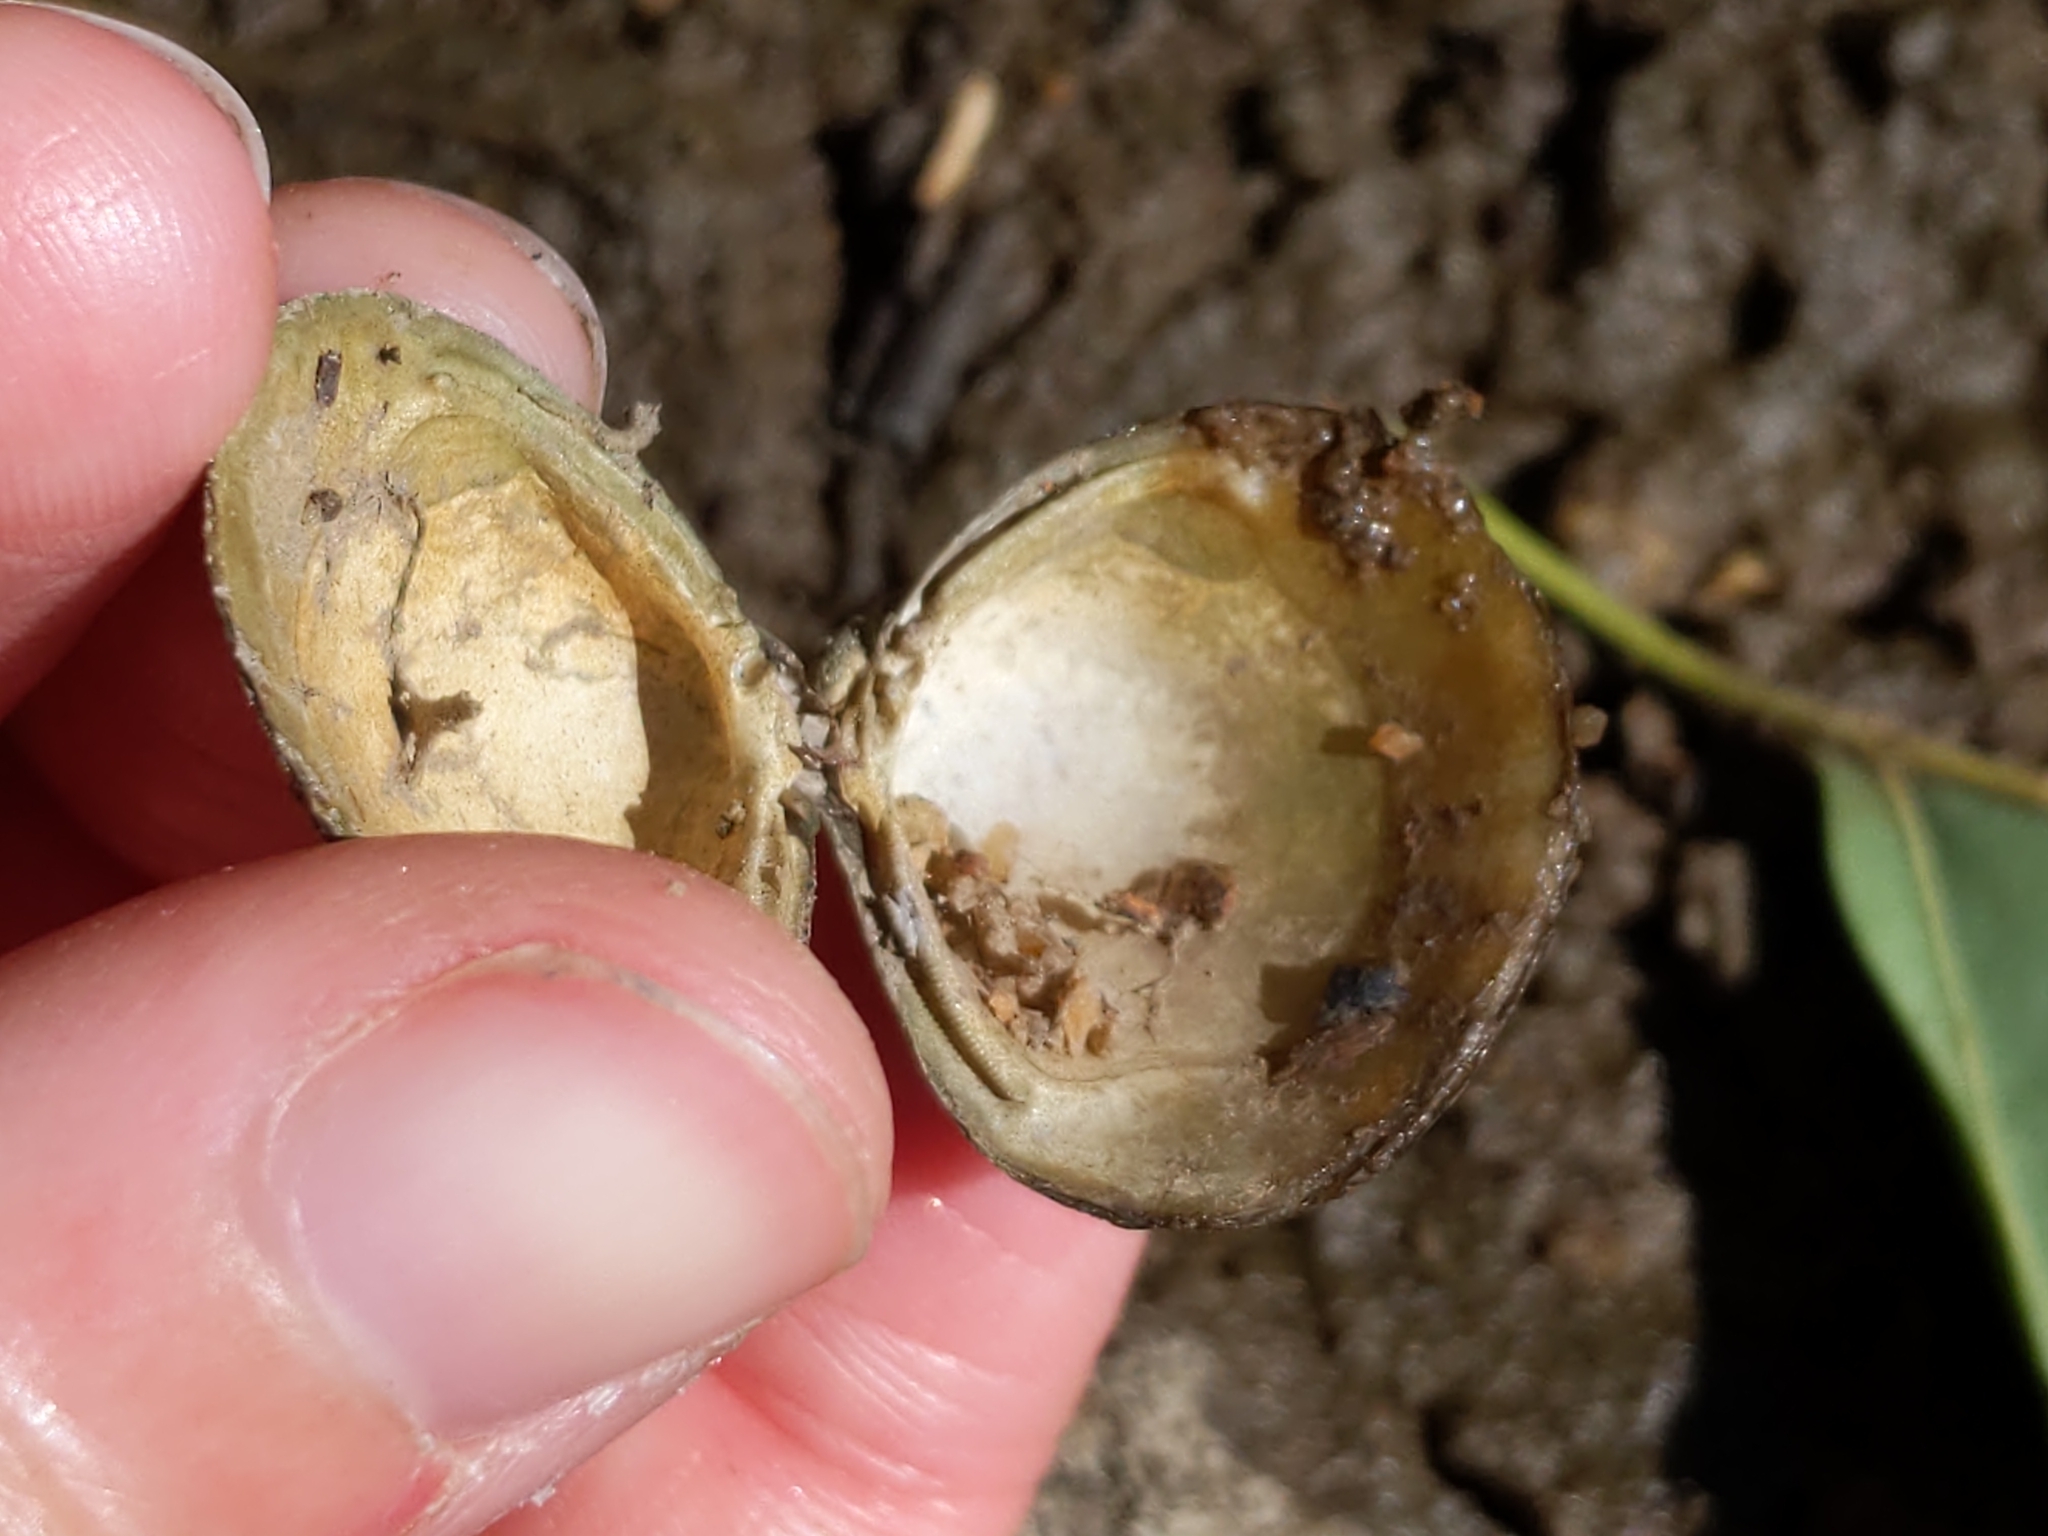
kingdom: Animalia
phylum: Mollusca
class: Bivalvia
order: Venerida
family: Cyrenidae
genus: Corbicula
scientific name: Corbicula fluminea
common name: Asian clam
